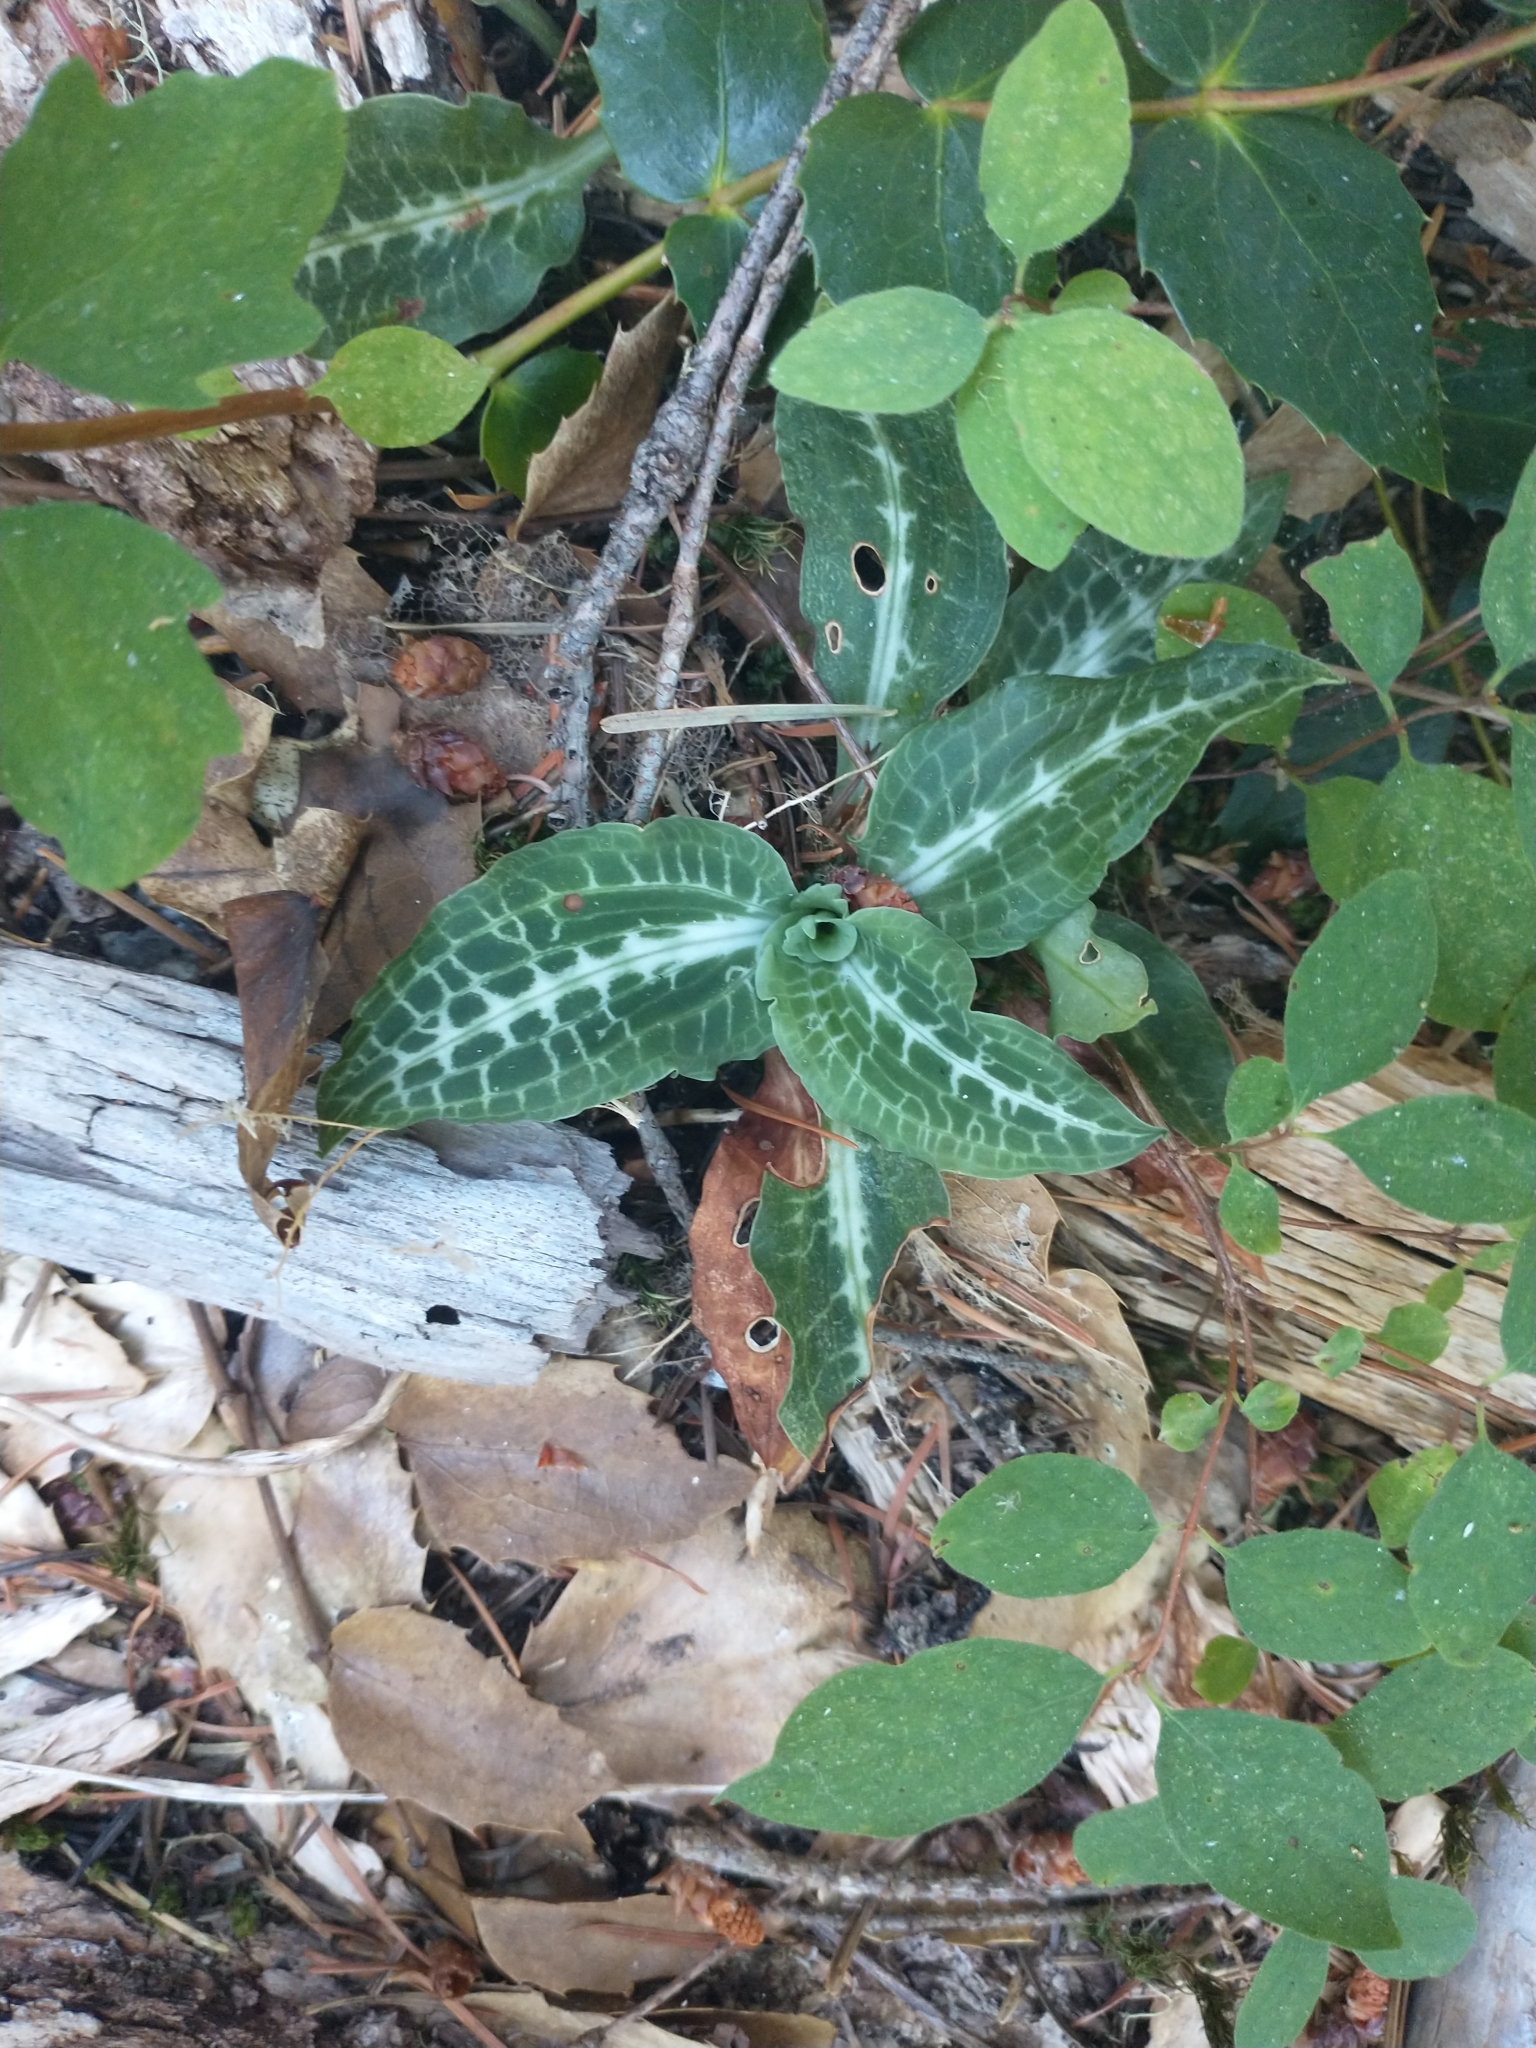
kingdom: Plantae
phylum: Tracheophyta
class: Liliopsida
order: Asparagales
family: Orchidaceae
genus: Goodyera
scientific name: Goodyera oblongifolia
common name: Giant rattlesnake-plantain
